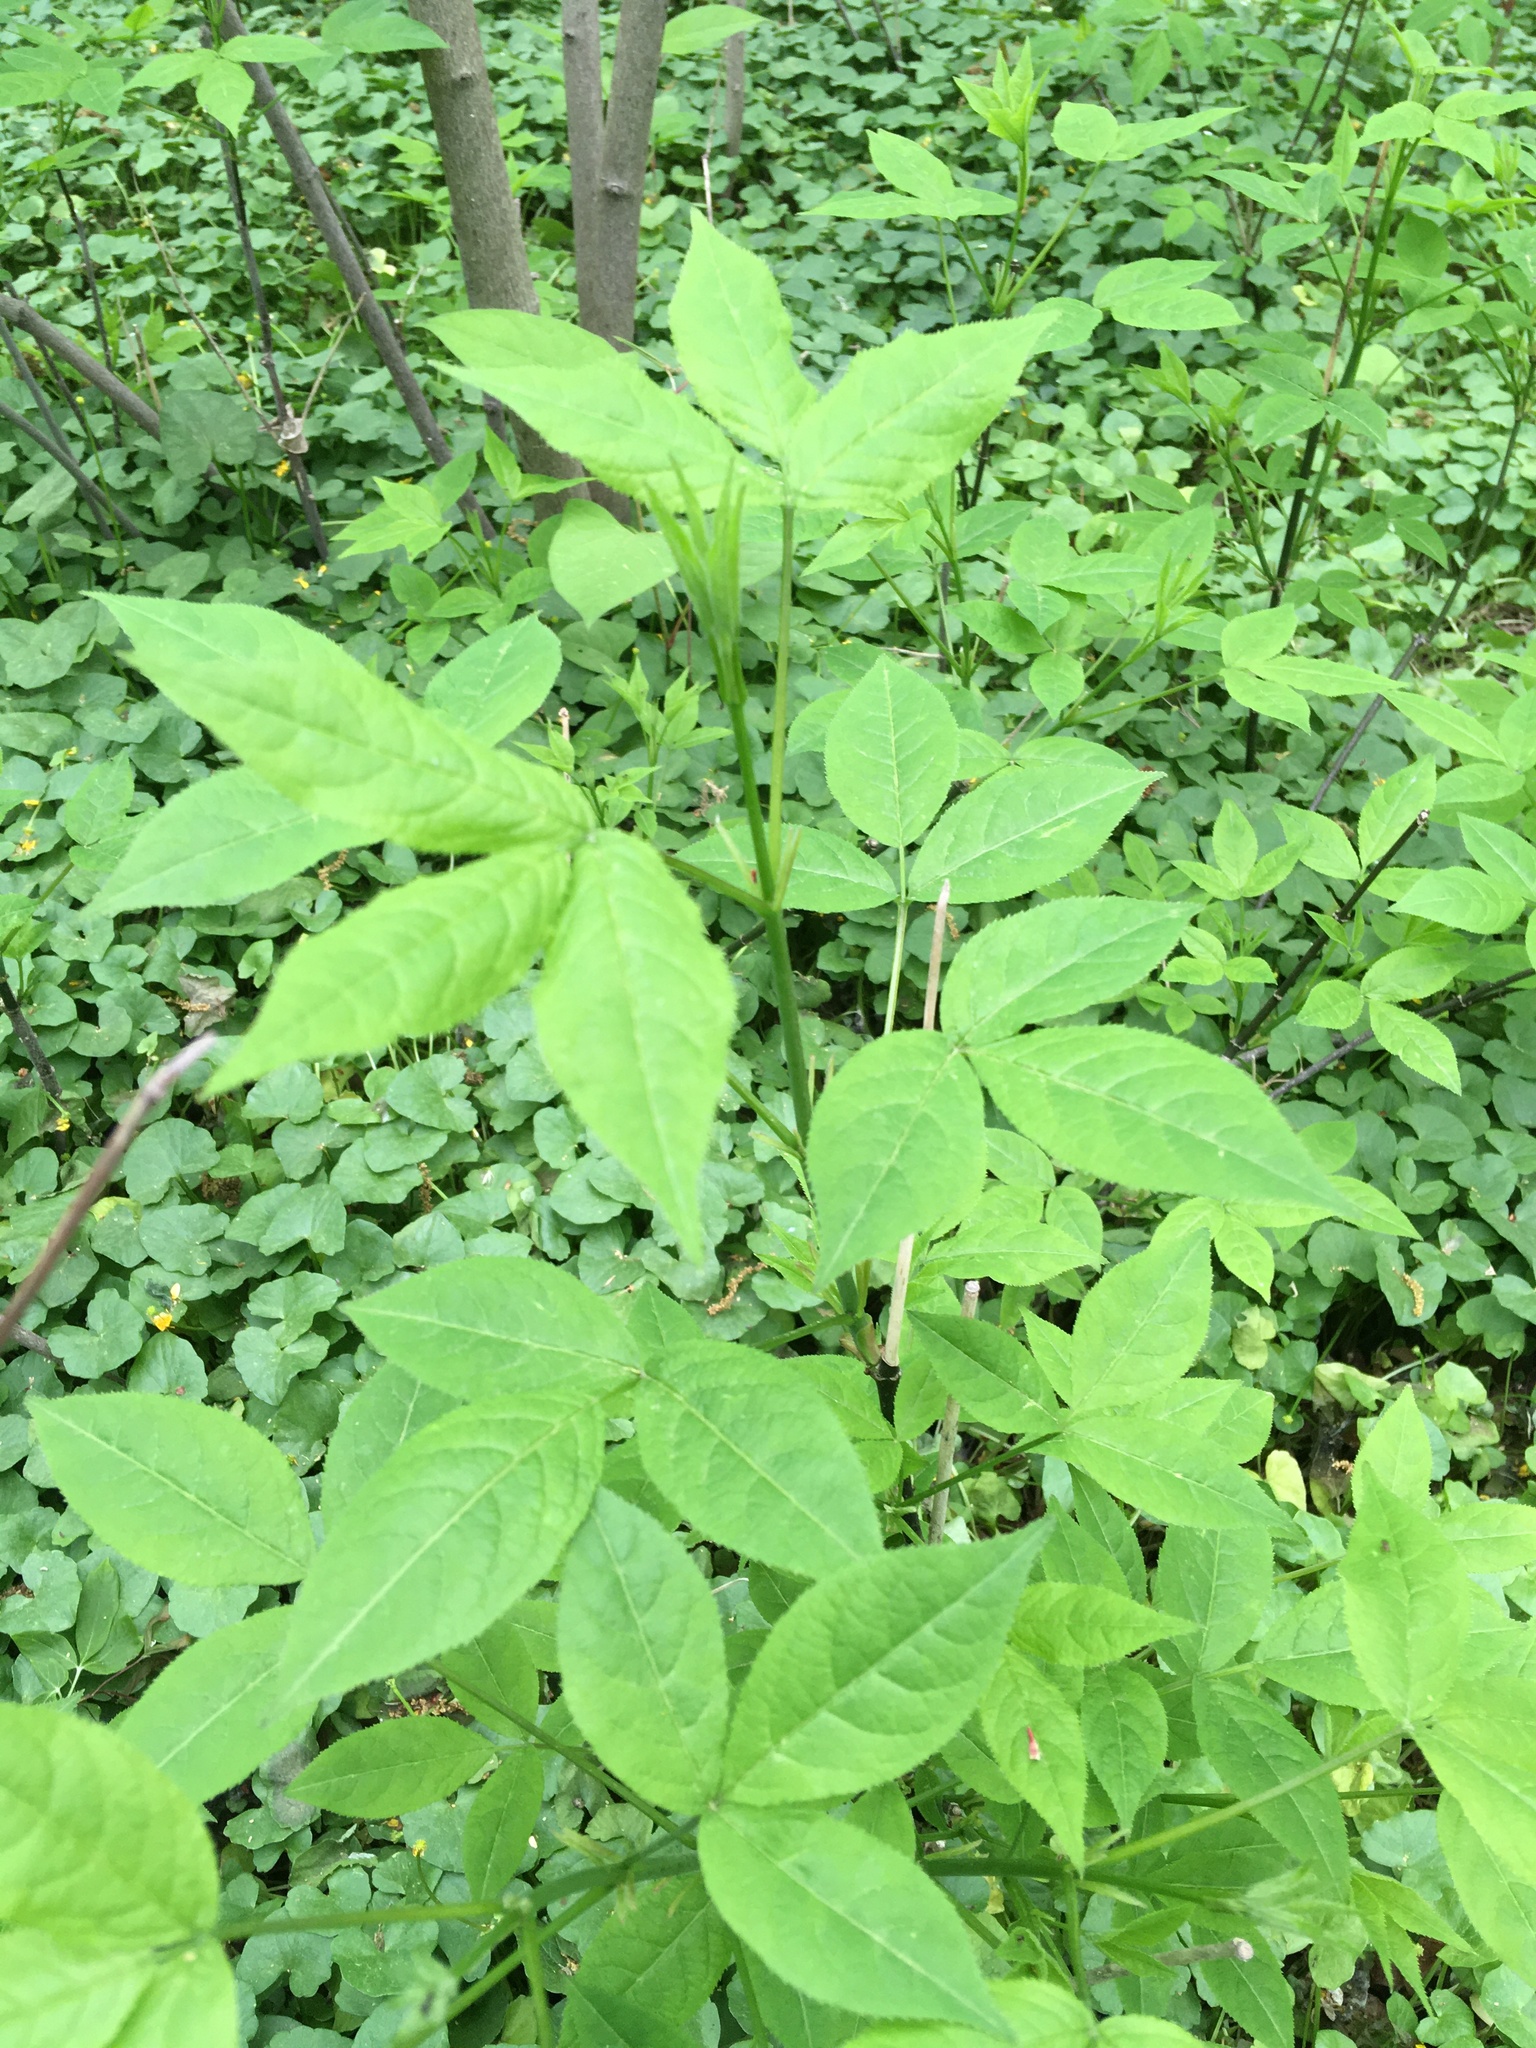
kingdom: Plantae
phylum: Tracheophyta
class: Magnoliopsida
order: Crossosomatales
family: Staphyleaceae
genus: Staphylea
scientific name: Staphylea trifolia
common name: American bladdernut
